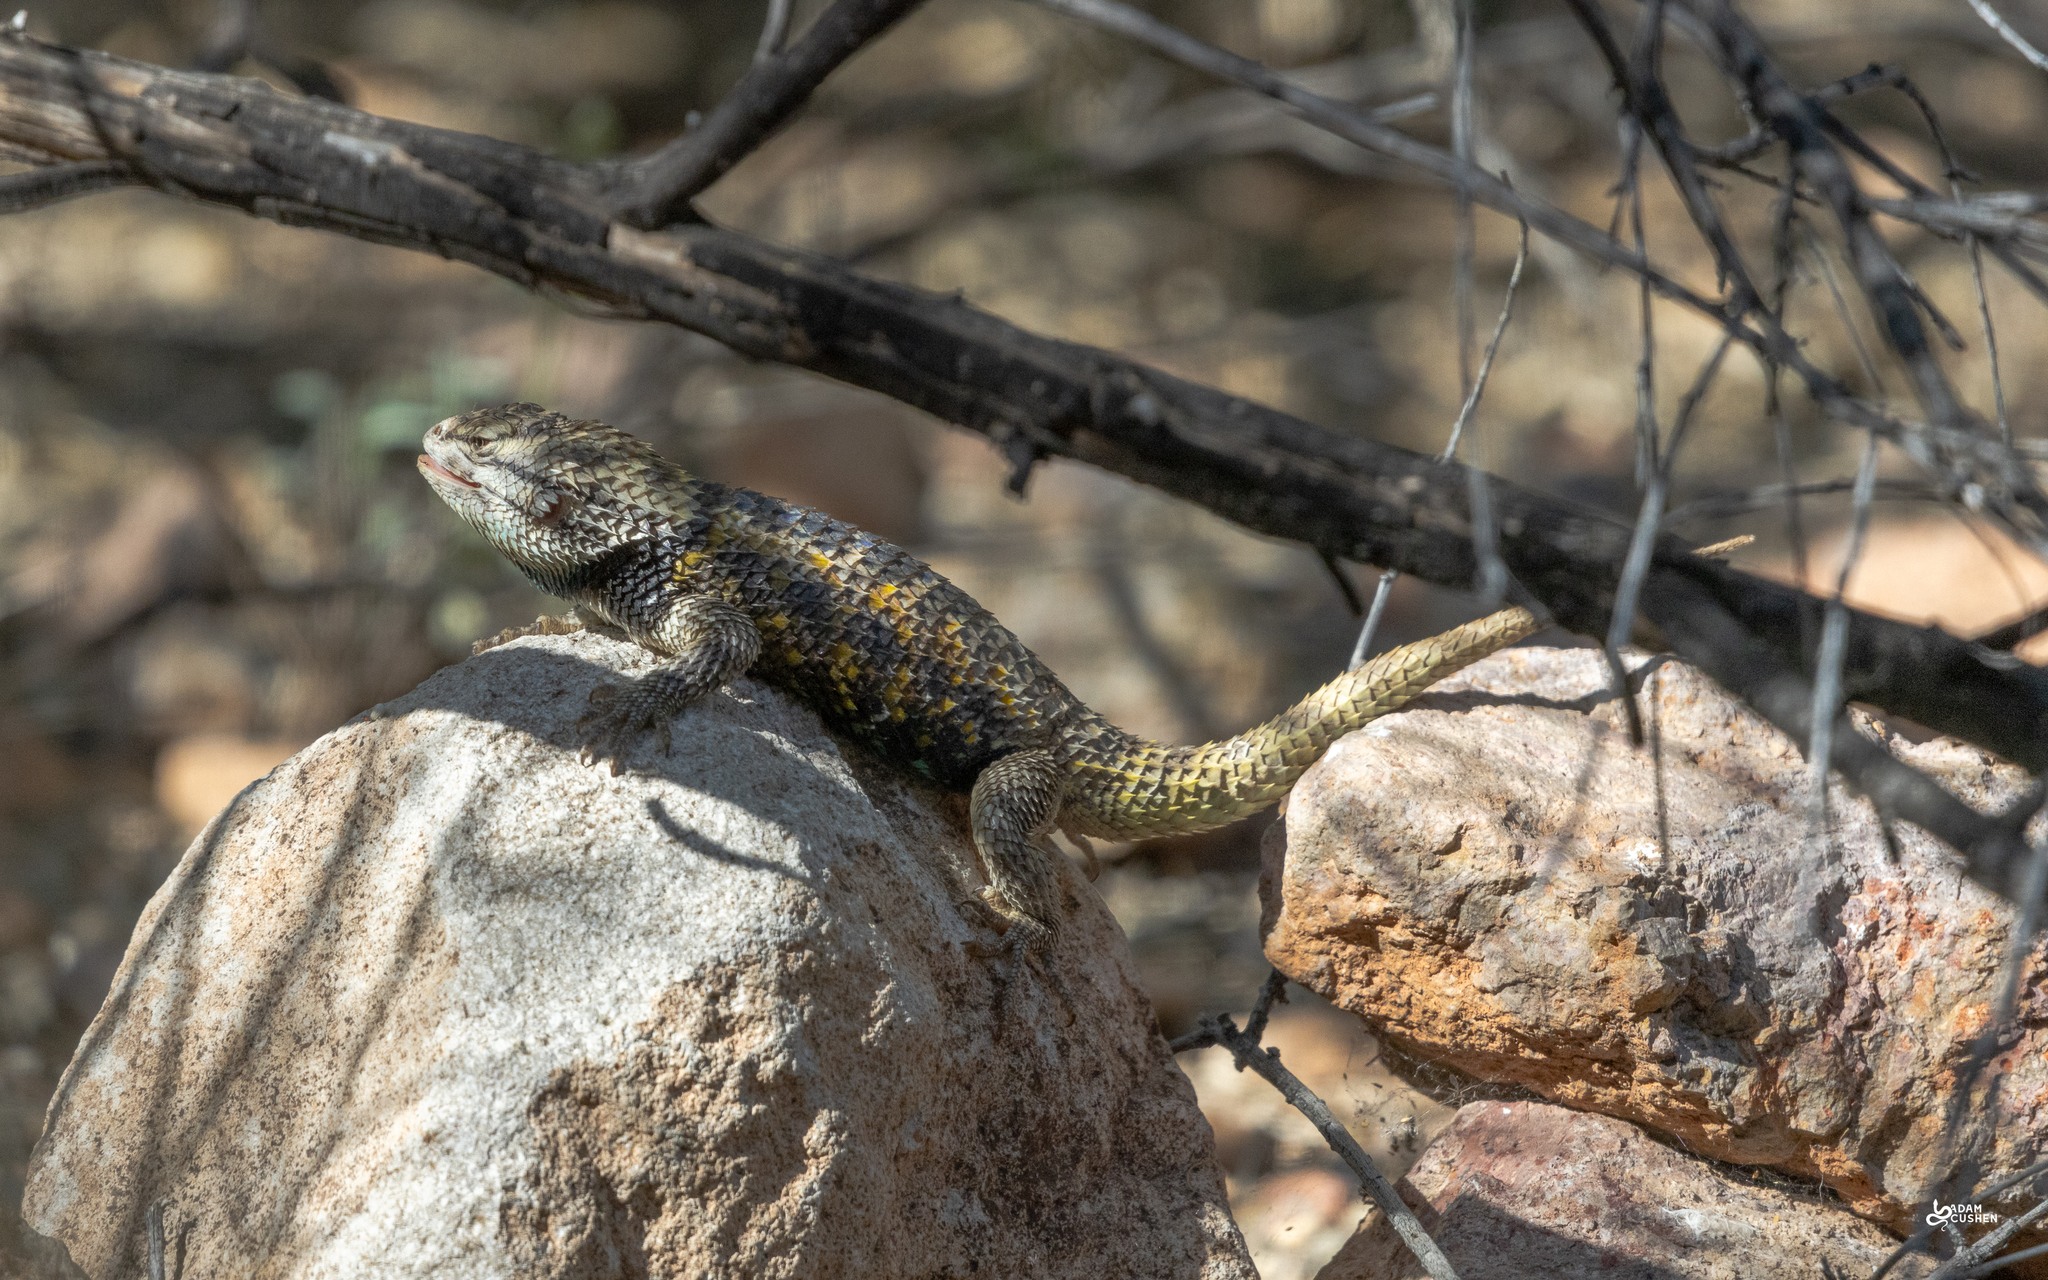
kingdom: Animalia
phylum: Chordata
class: Squamata
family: Phrynosomatidae
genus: Sceloporus
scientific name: Sceloporus magister
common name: Desert spiny lizard
